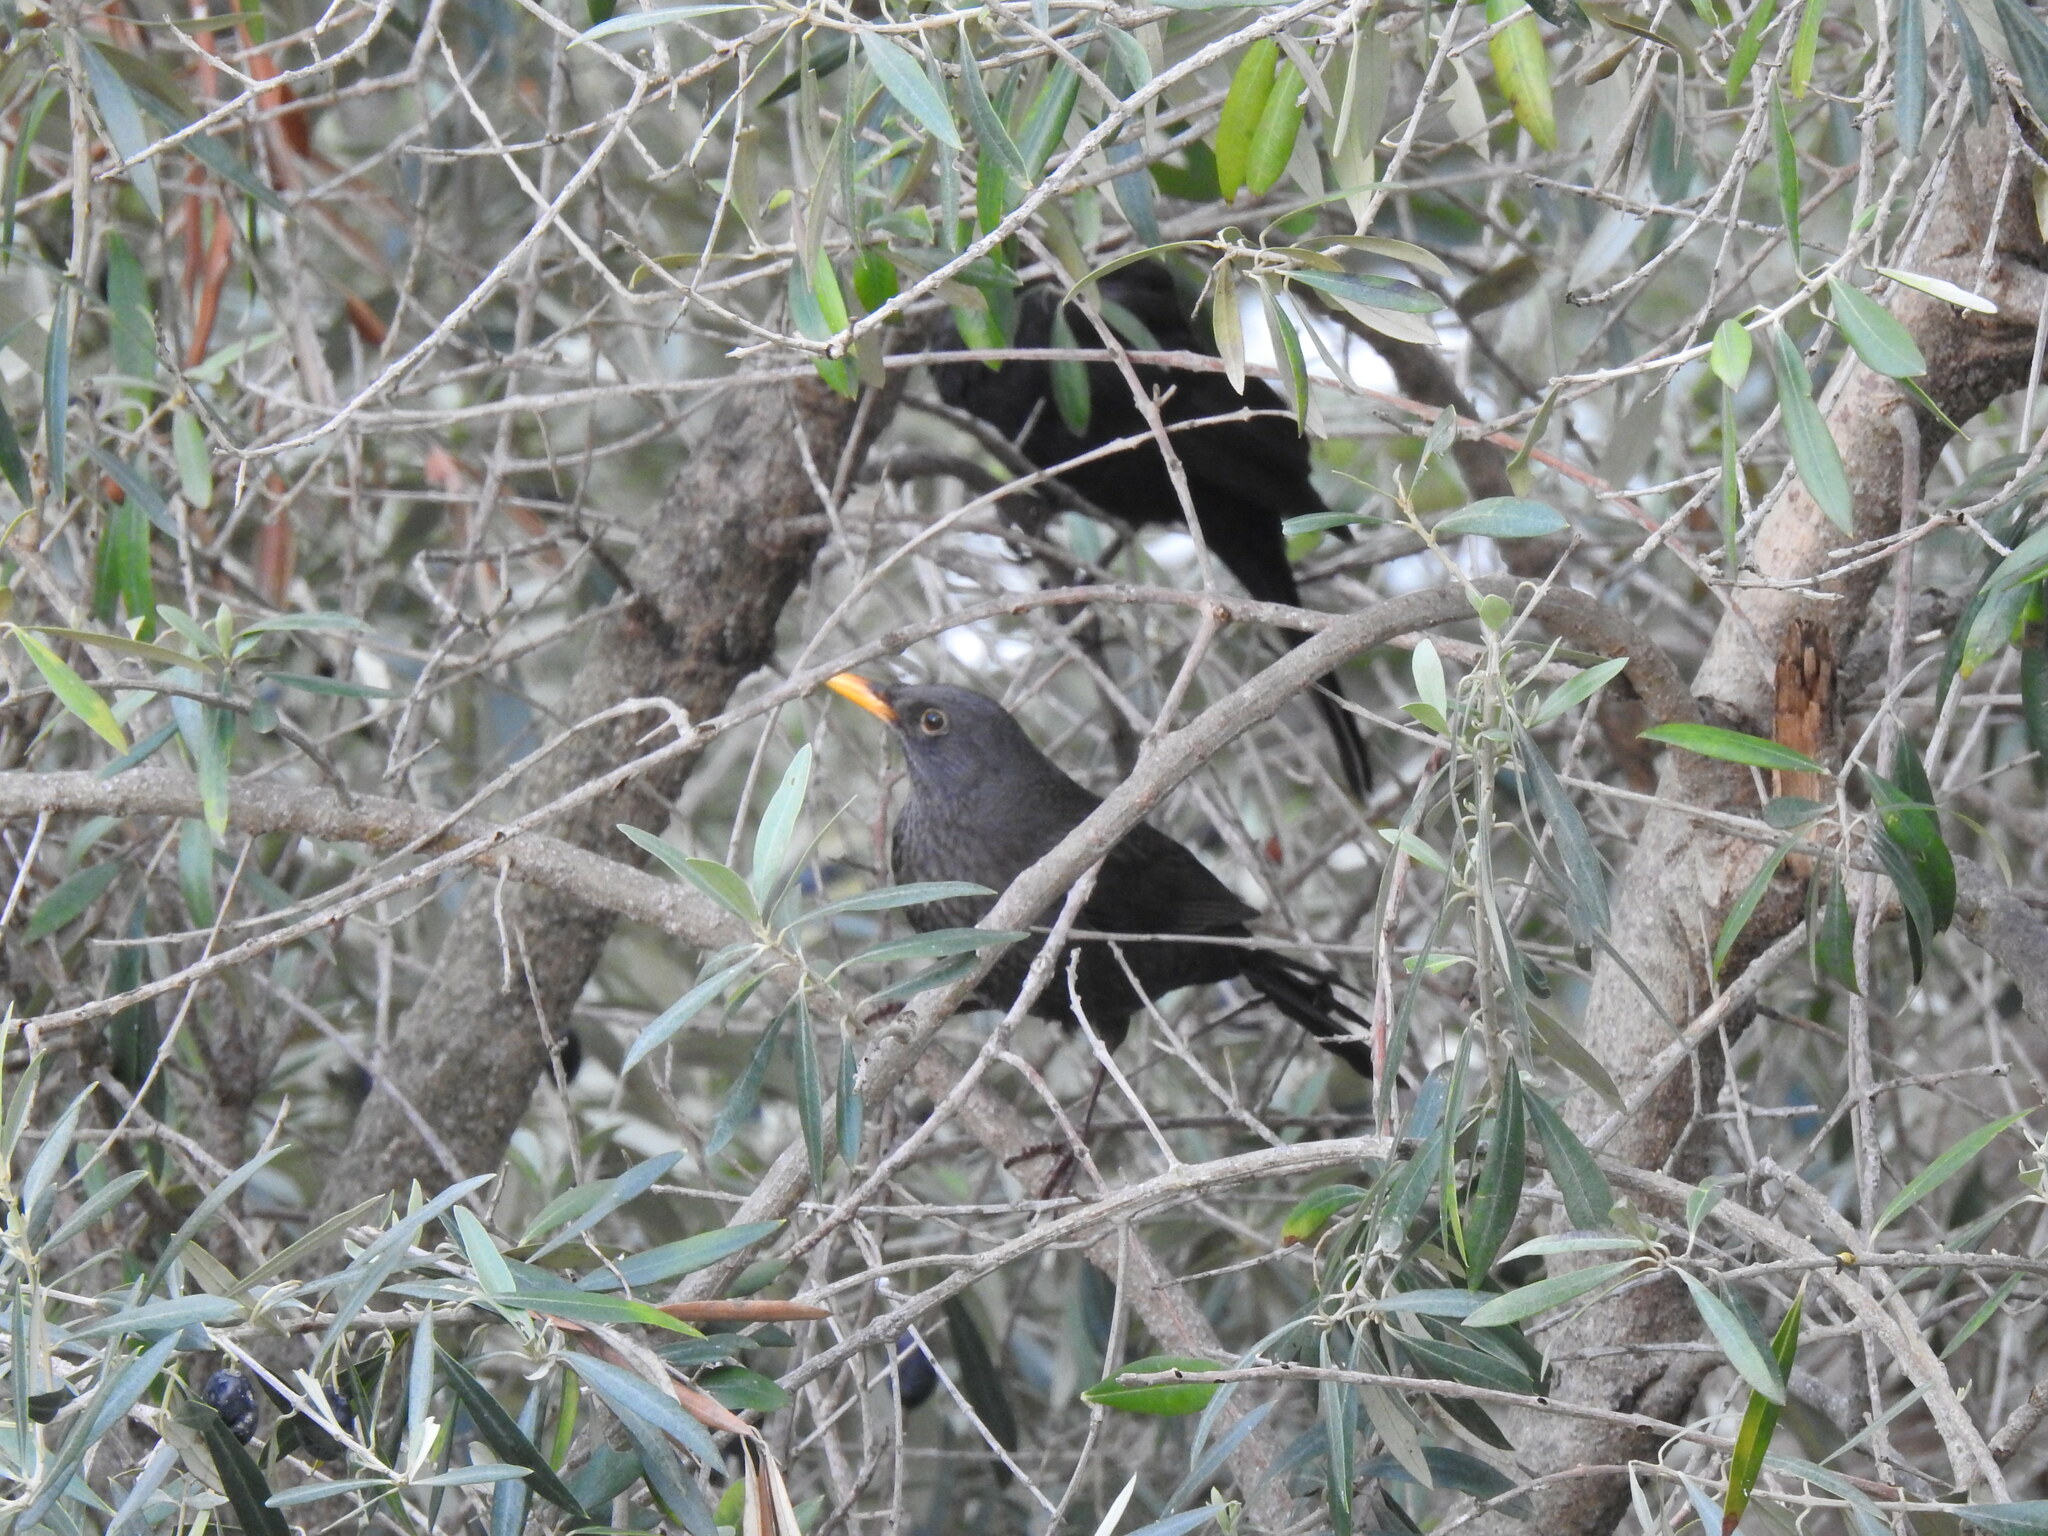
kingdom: Animalia
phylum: Chordata
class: Aves
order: Passeriformes
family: Turdidae
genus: Turdus
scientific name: Turdus merula
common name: Common blackbird
